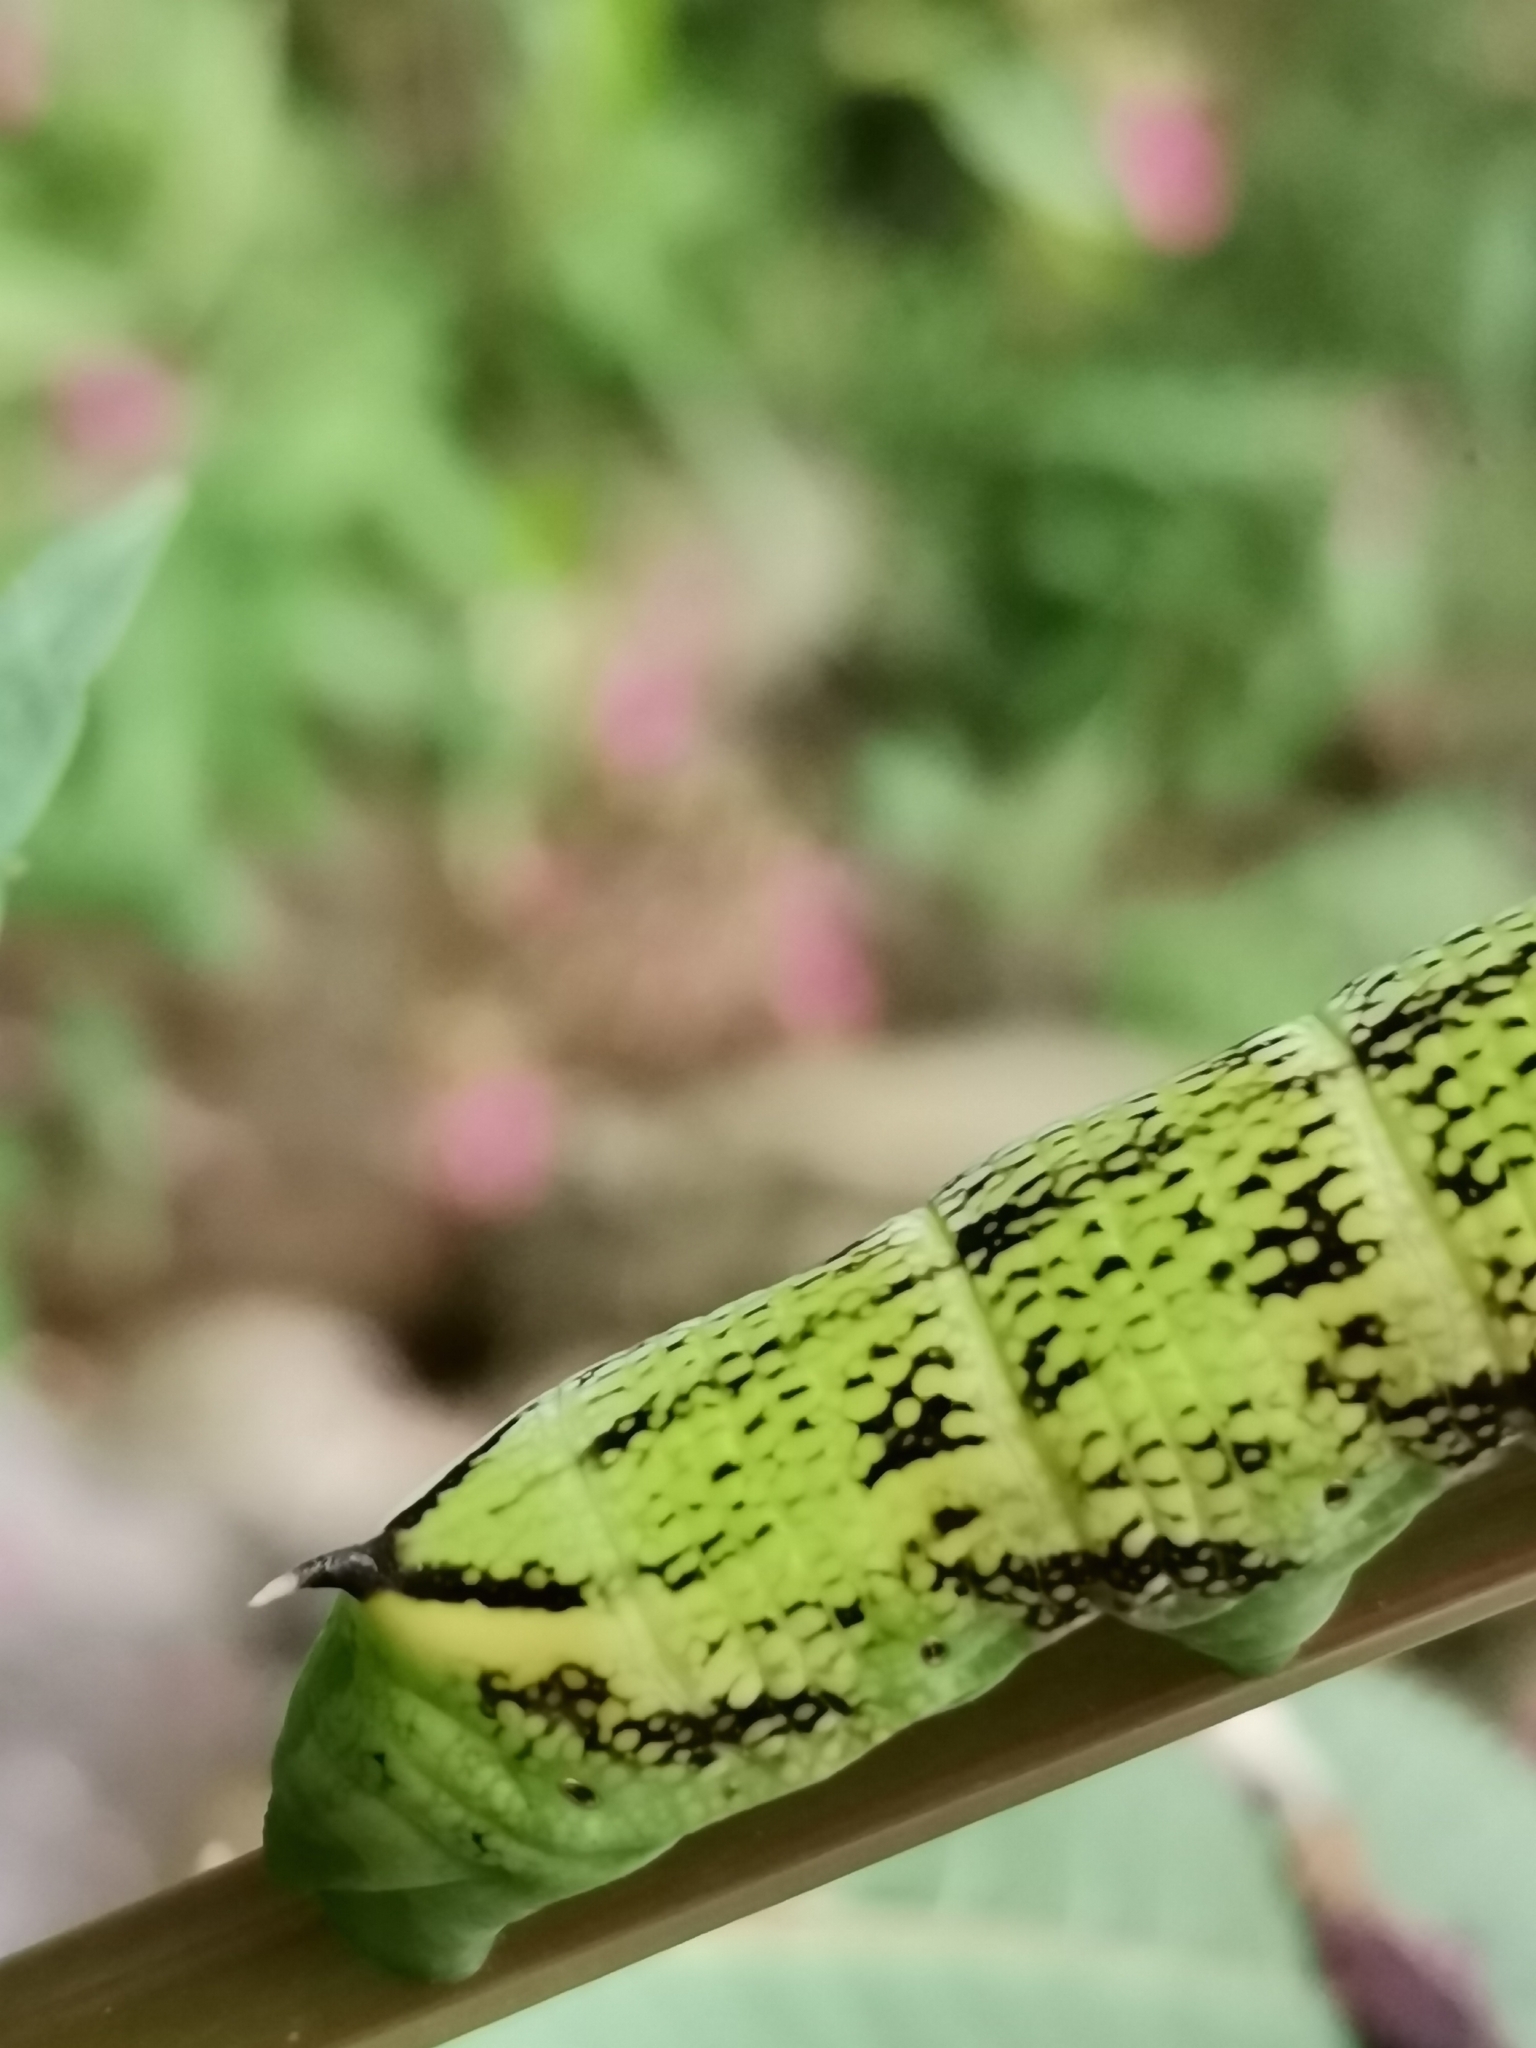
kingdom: Animalia
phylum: Arthropoda
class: Insecta
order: Lepidoptera
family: Sphingidae
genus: Deilephila
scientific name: Deilephila elpenor
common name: Elephant hawk-moth
